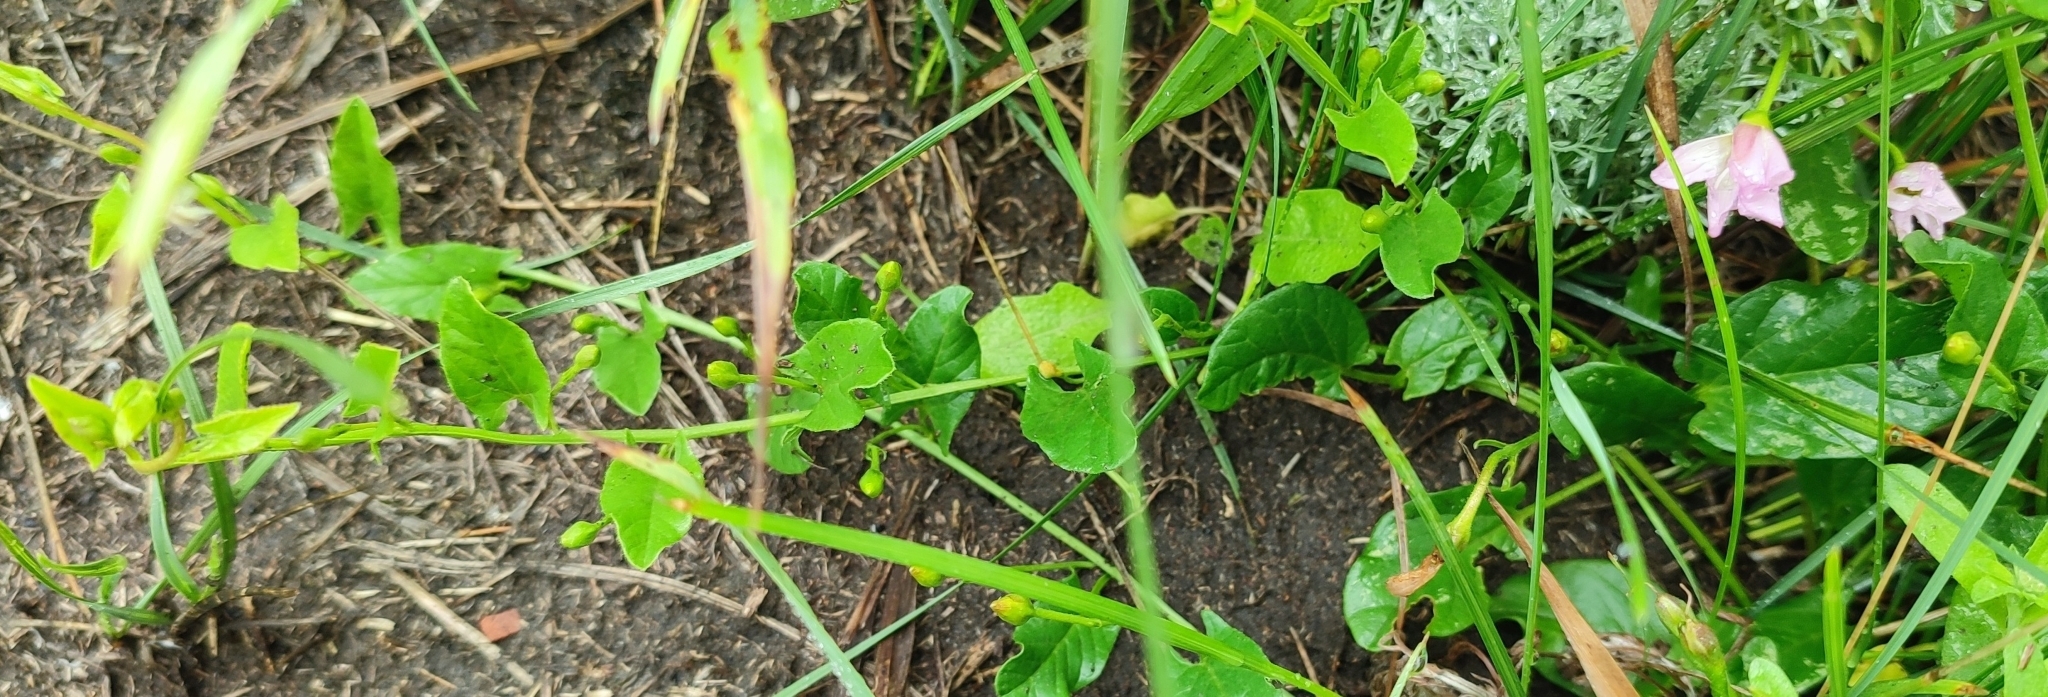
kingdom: Plantae
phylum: Tracheophyta
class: Magnoliopsida
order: Solanales
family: Convolvulaceae
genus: Convolvulus
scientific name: Convolvulus arvensis
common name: Field bindweed
